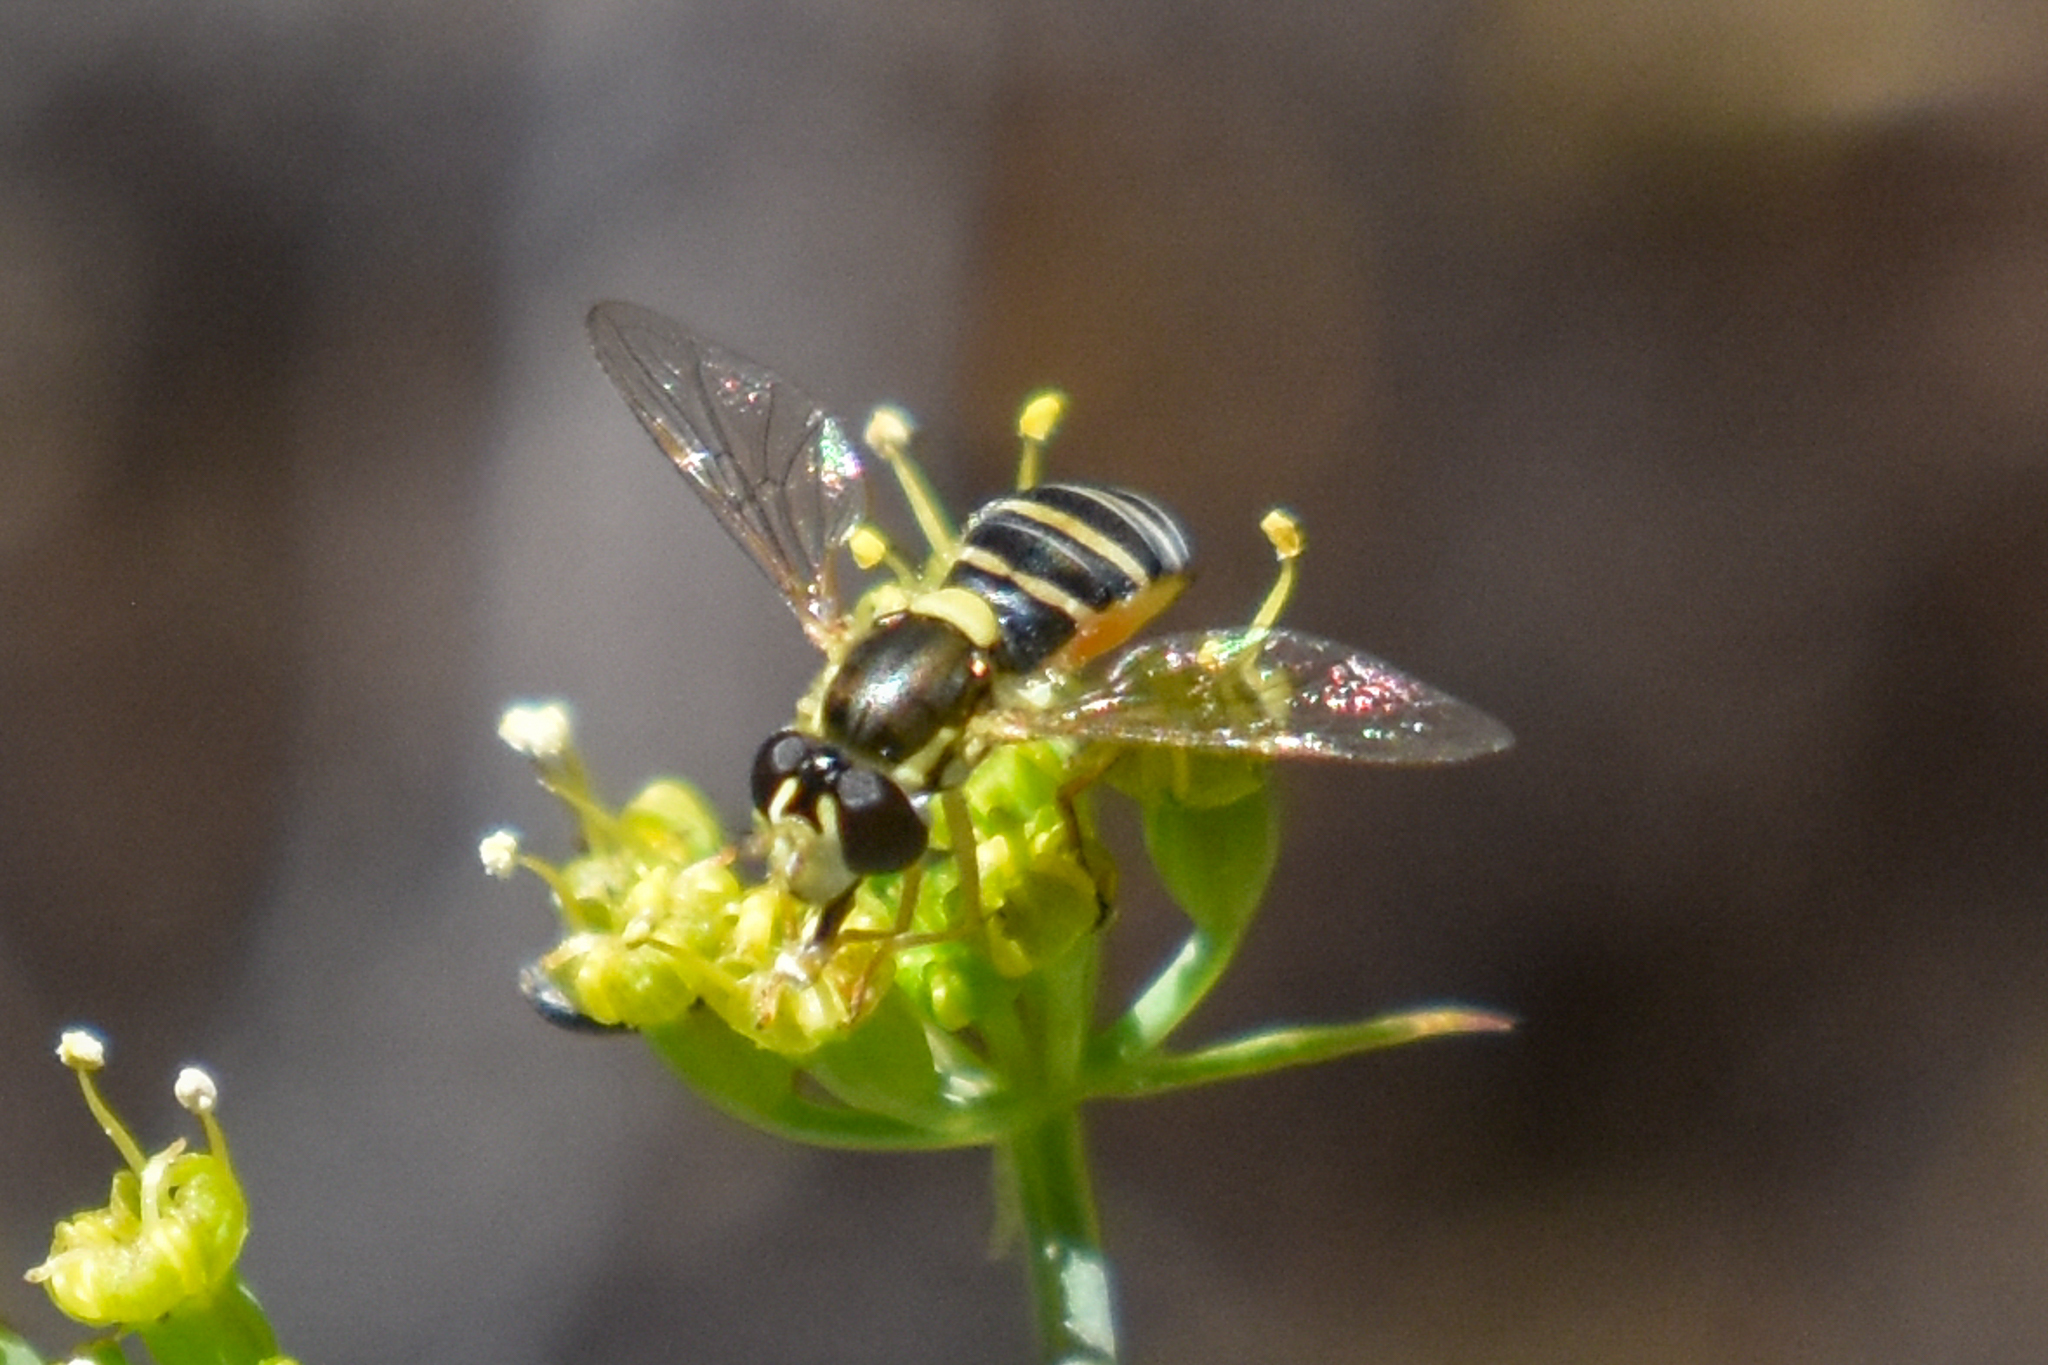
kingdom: Animalia
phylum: Arthropoda
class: Insecta
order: Diptera
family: Syrphidae
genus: Sphaerophoria
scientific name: Sphaerophoria sulphuripes
